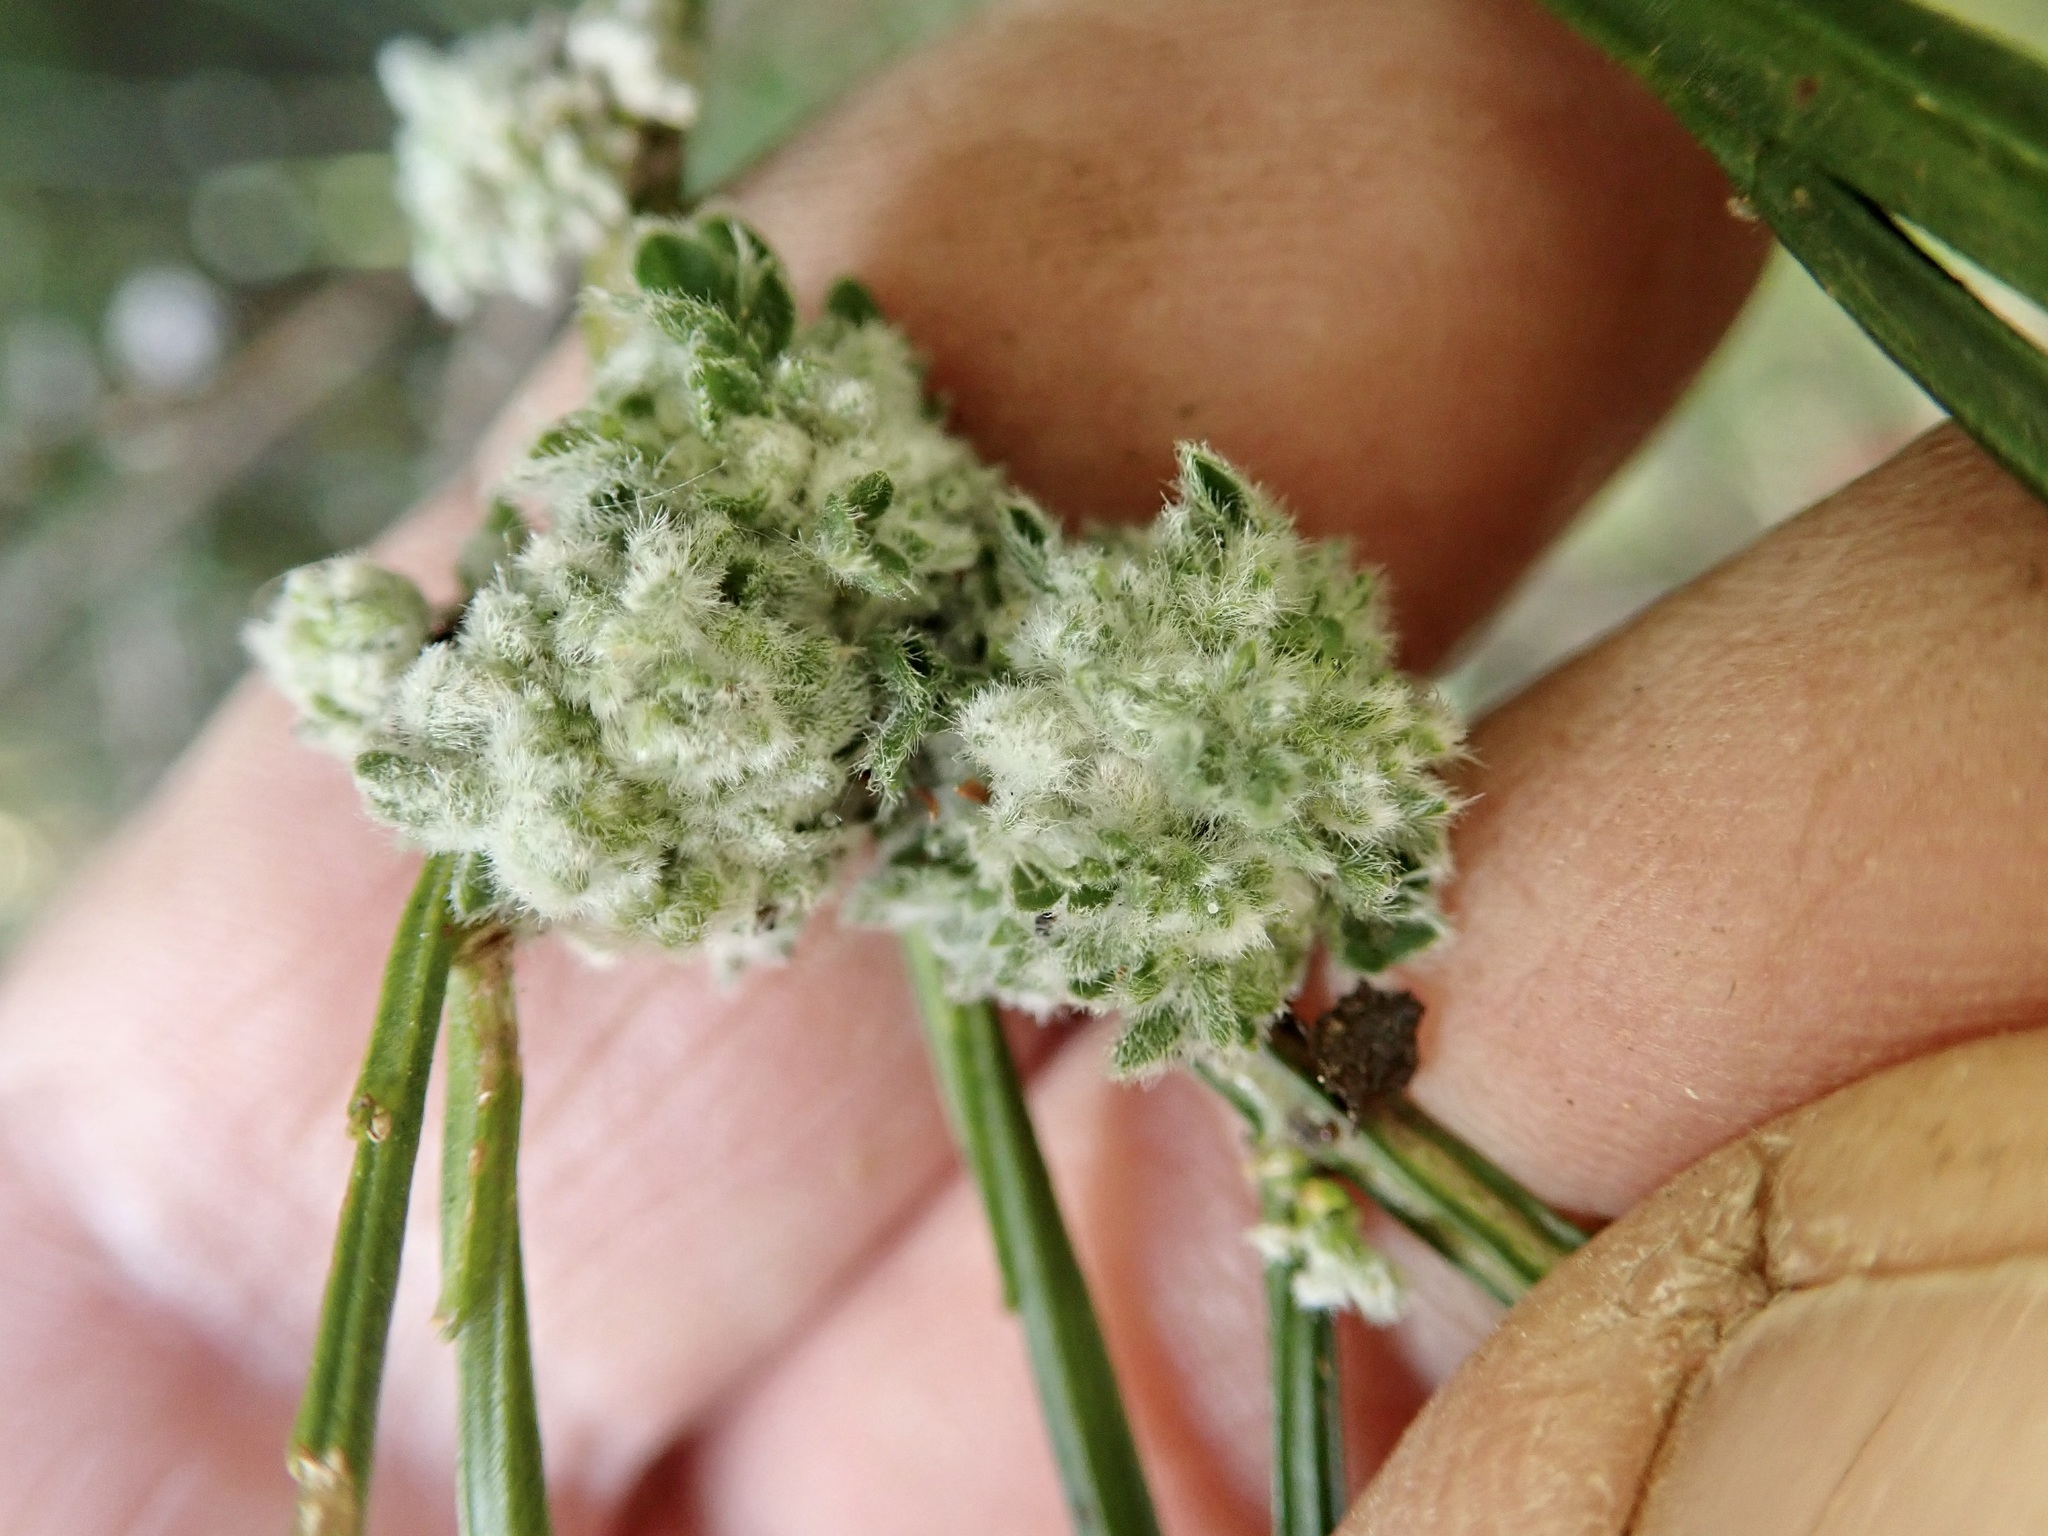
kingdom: Animalia
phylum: Arthropoda
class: Arachnida
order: Trombidiformes
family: Eriophyidae
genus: Aceria
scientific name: Aceria genistae
